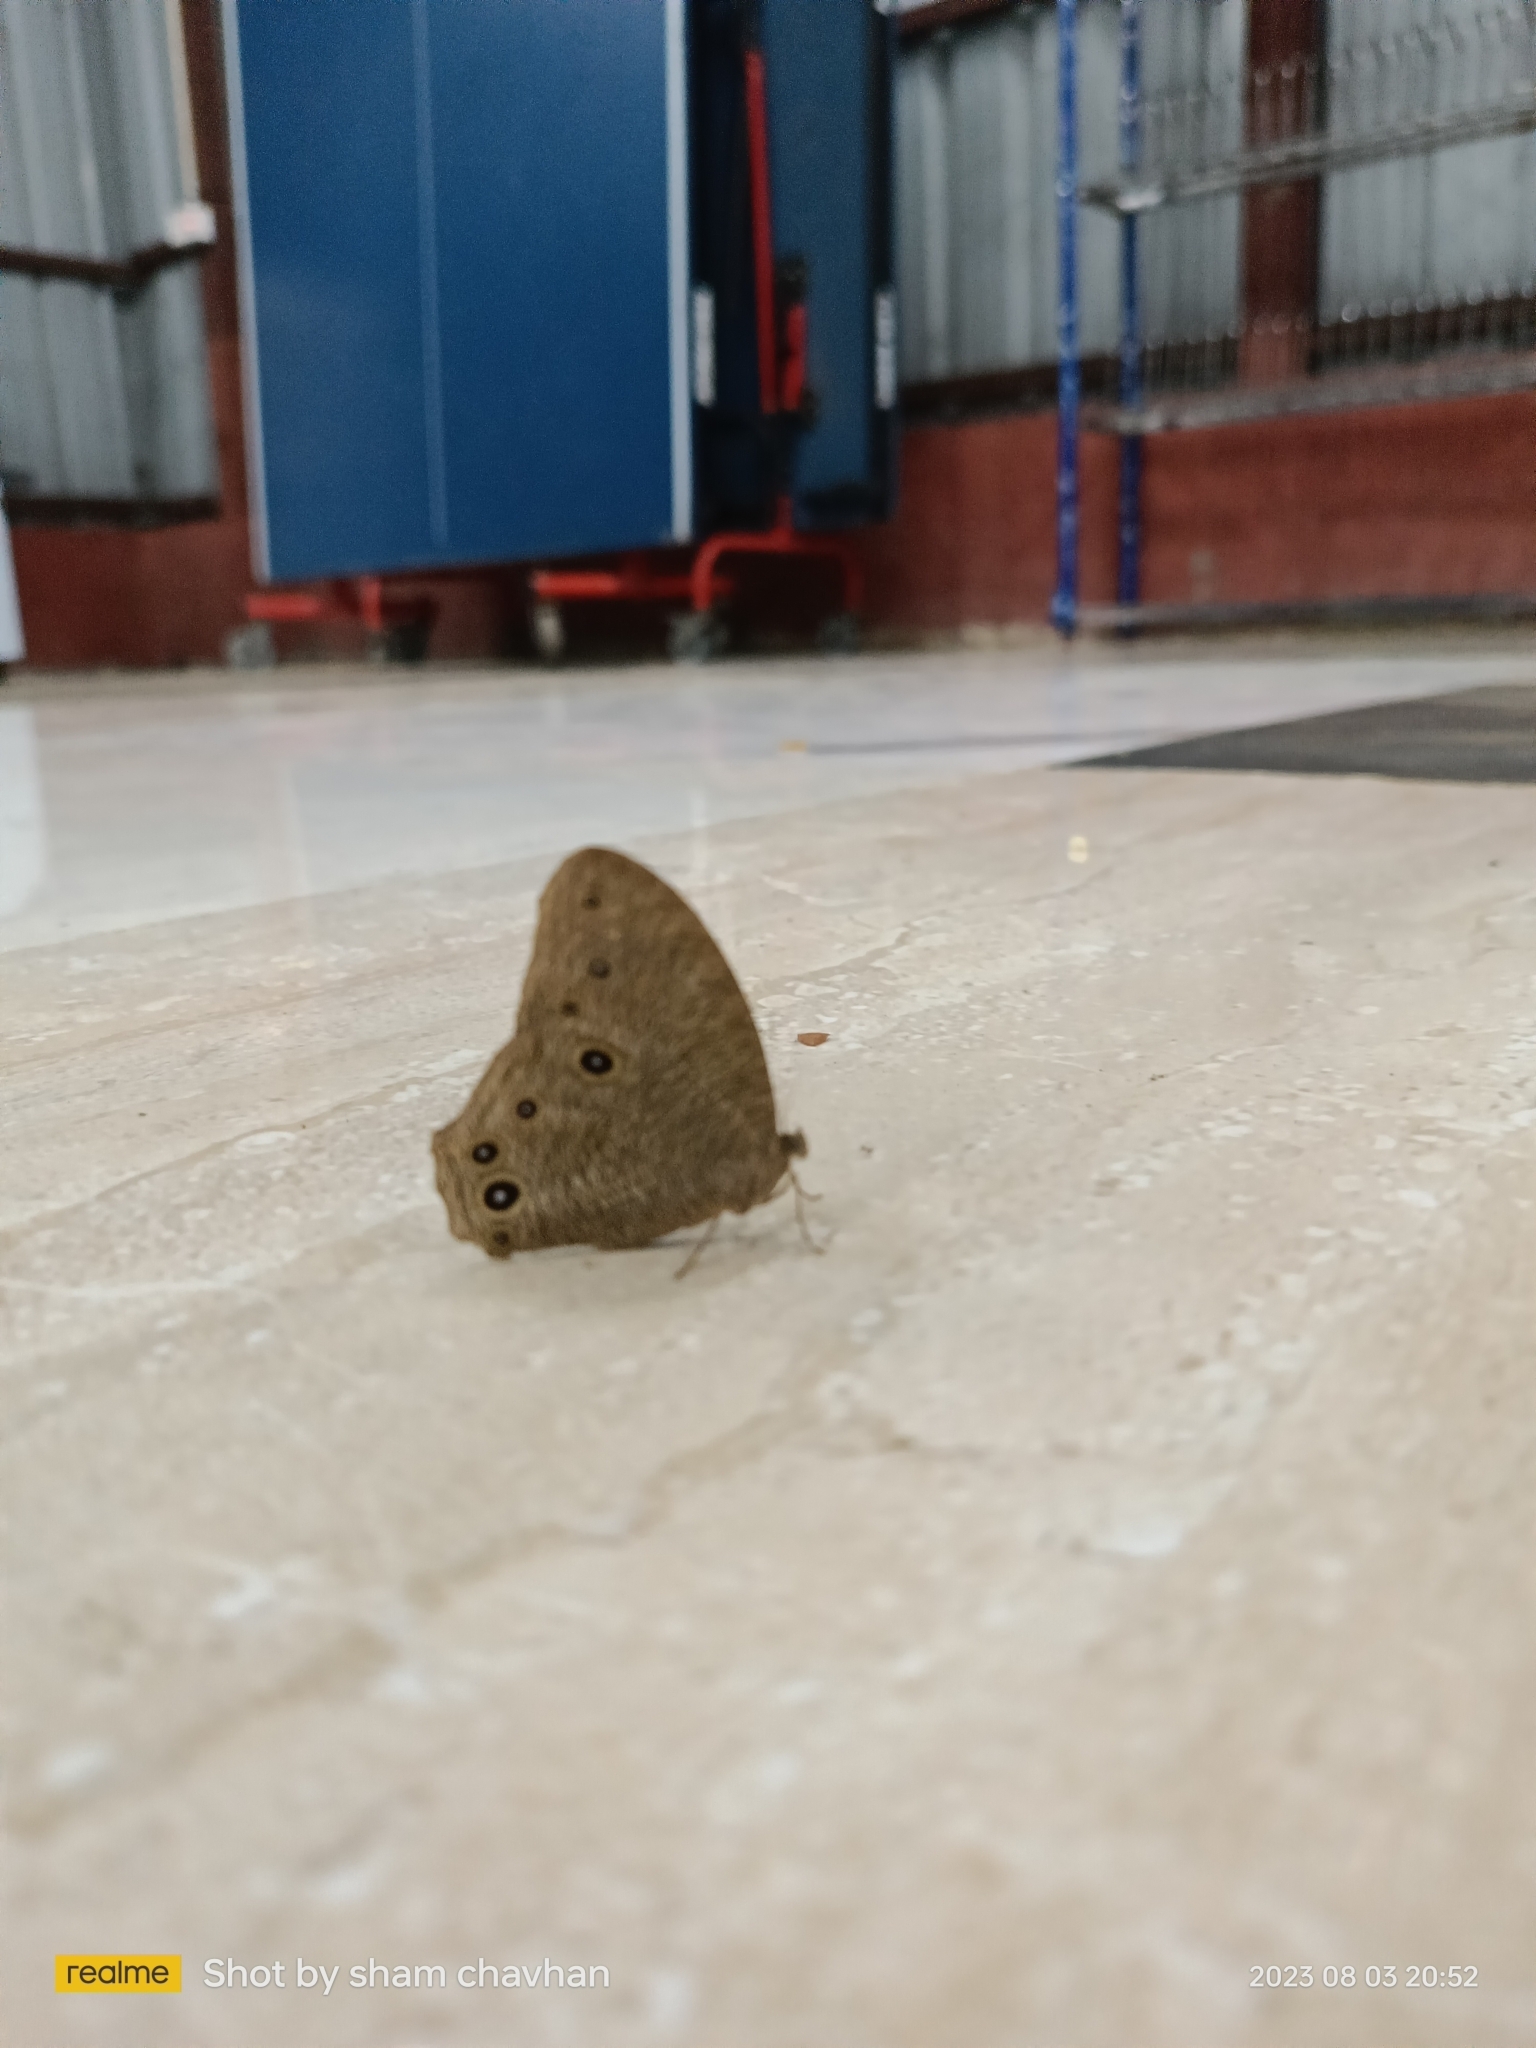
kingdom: Animalia
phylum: Arthropoda
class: Insecta
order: Lepidoptera
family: Nymphalidae
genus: Melanitis
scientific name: Melanitis leda
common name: Twilight brown
